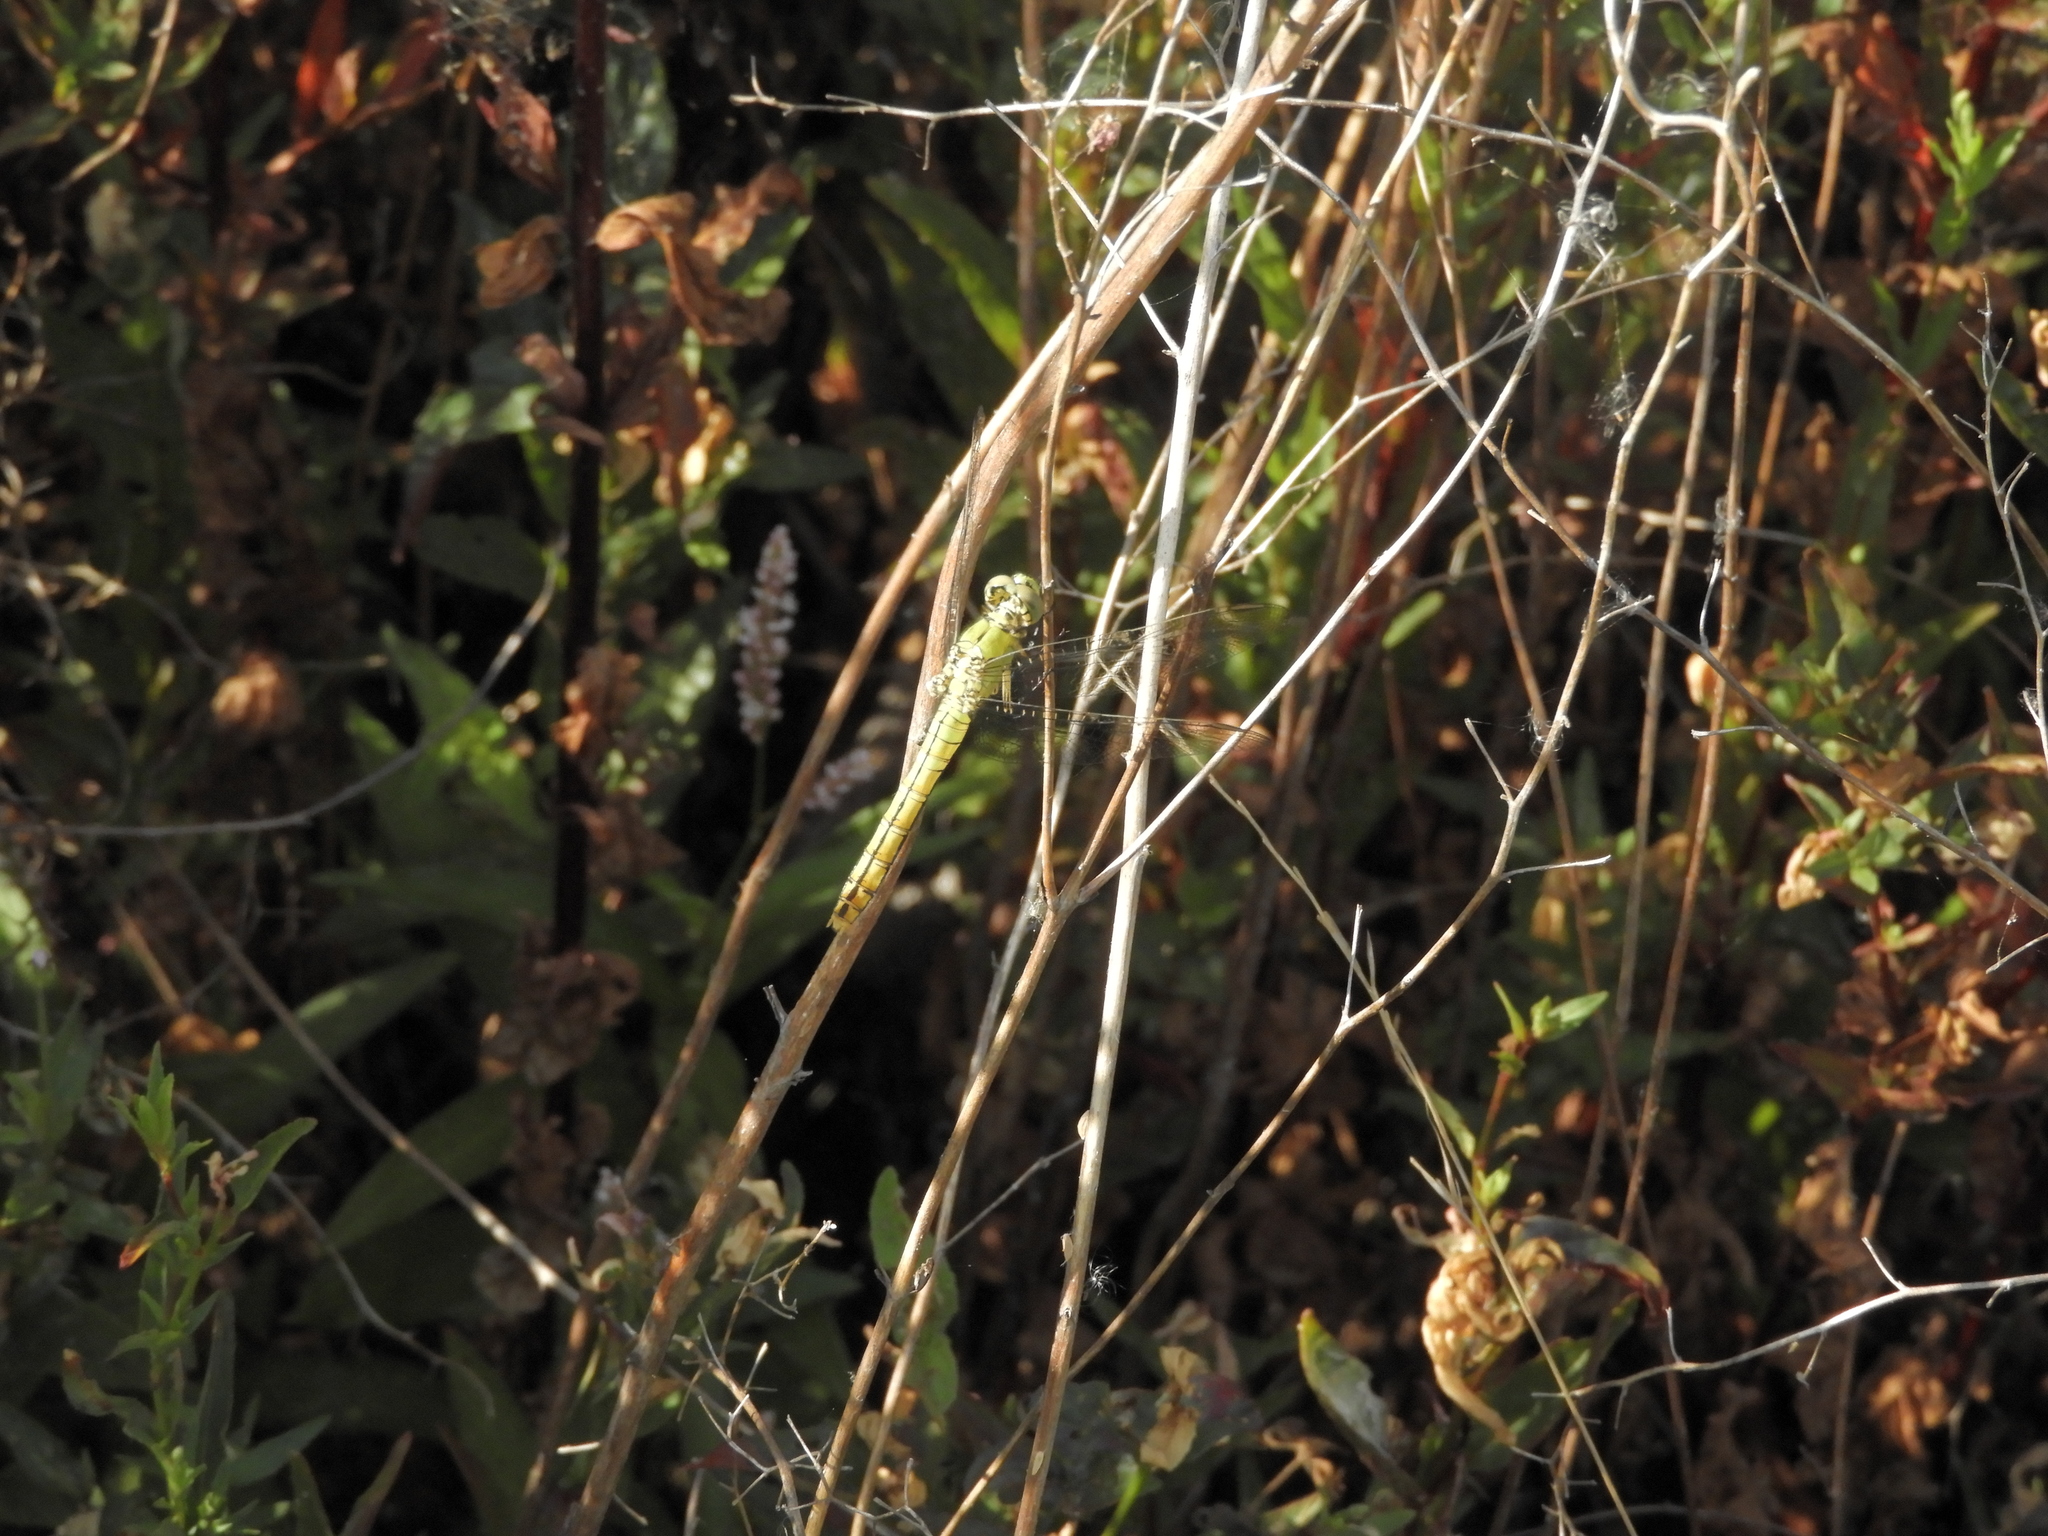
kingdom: Animalia
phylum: Arthropoda
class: Insecta
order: Odonata
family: Libellulidae
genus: Erythemis
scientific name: Erythemis collocata
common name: Western pondhawk
